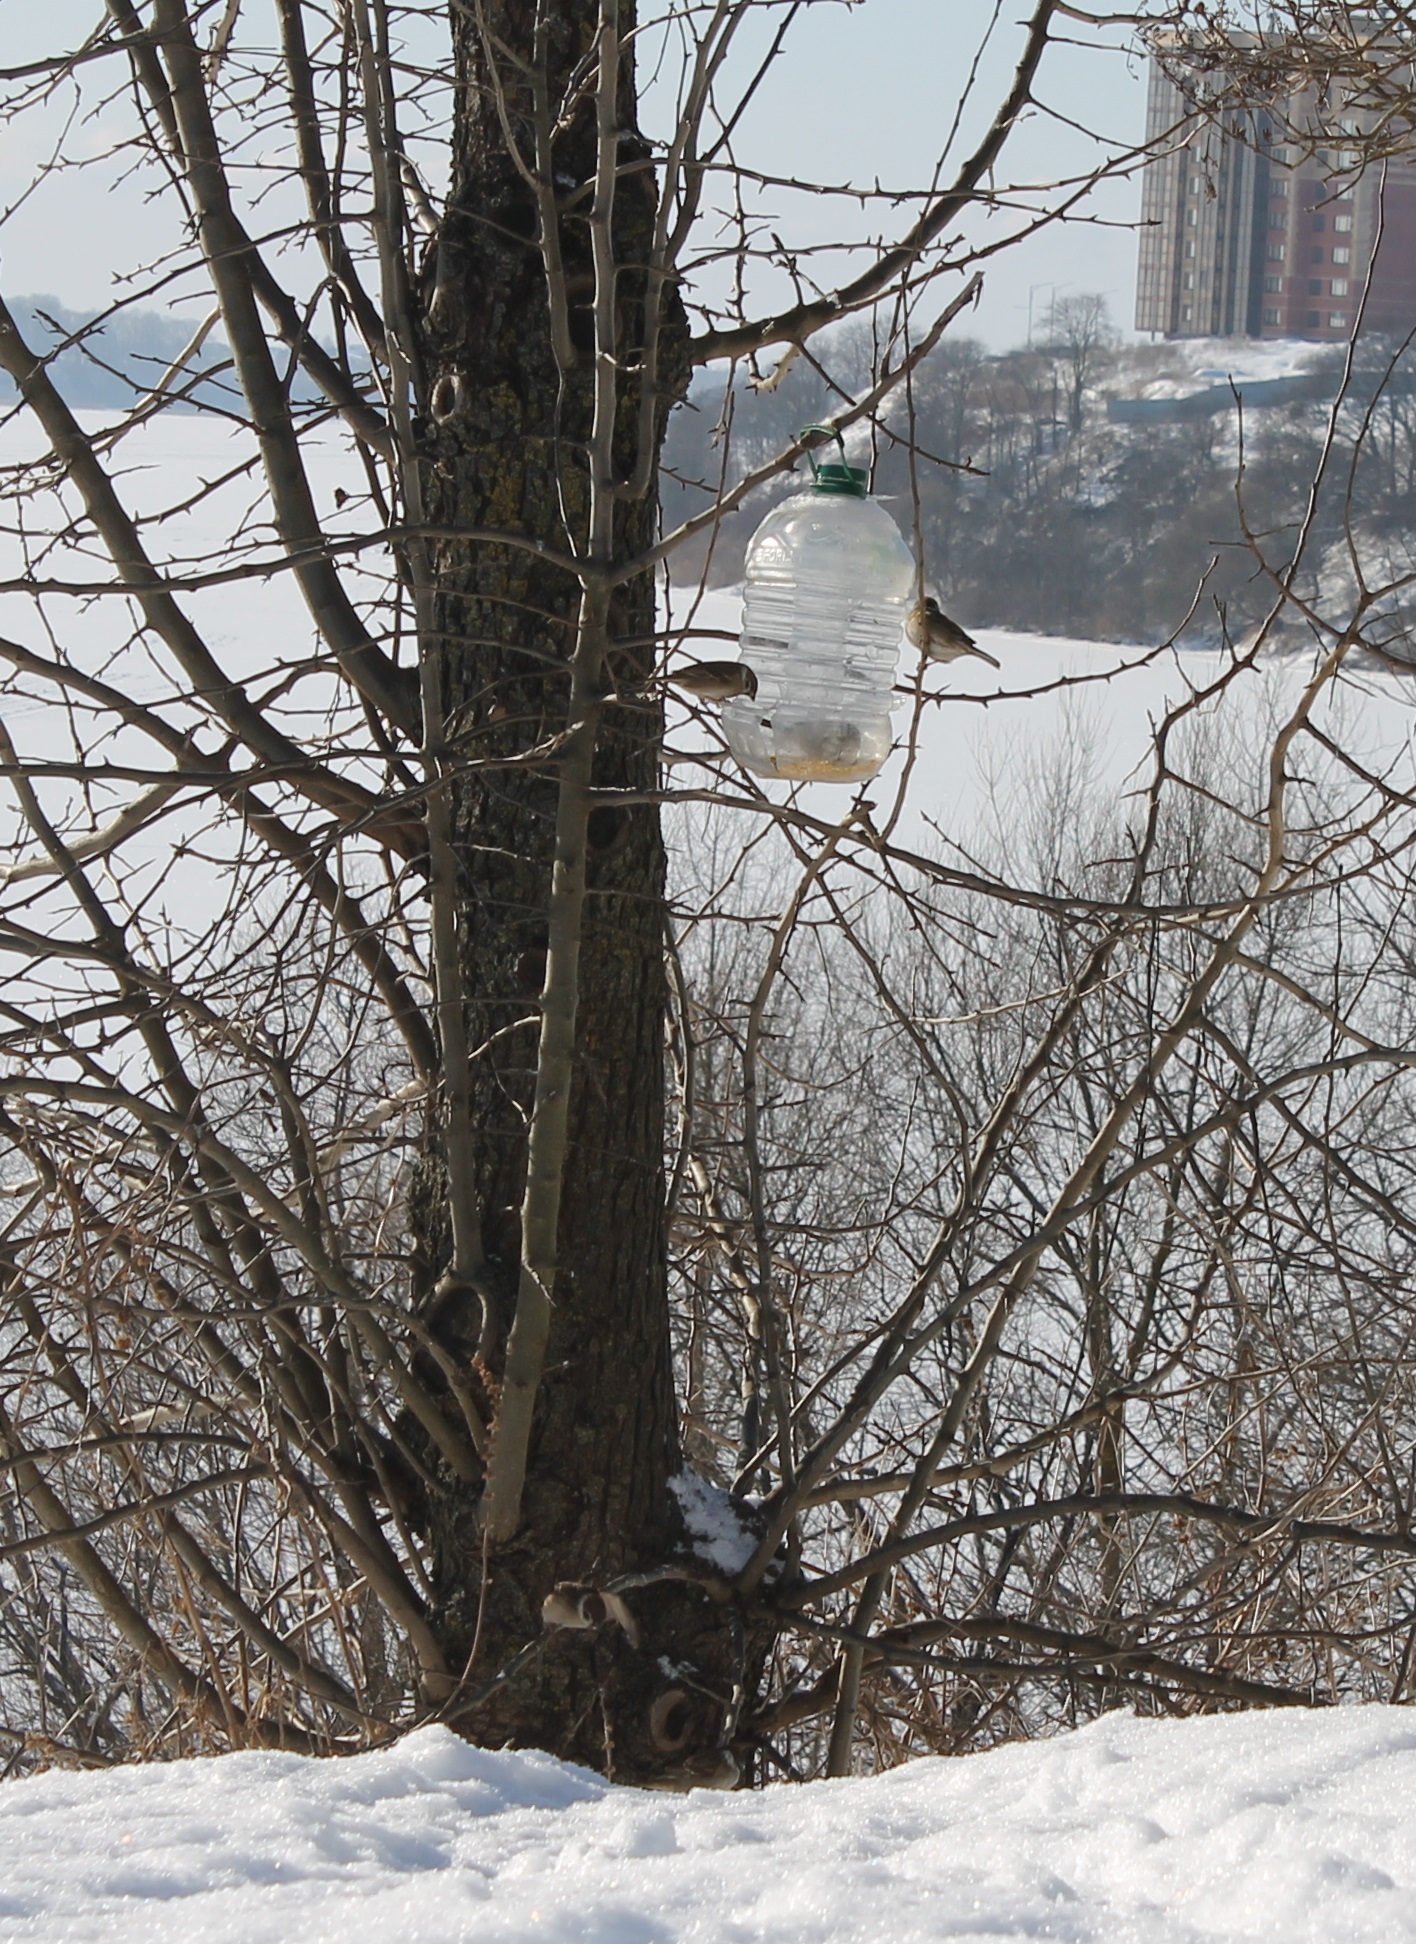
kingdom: Animalia
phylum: Chordata
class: Aves
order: Passeriformes
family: Passeridae
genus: Passer
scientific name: Passer montanus
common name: Eurasian tree sparrow
